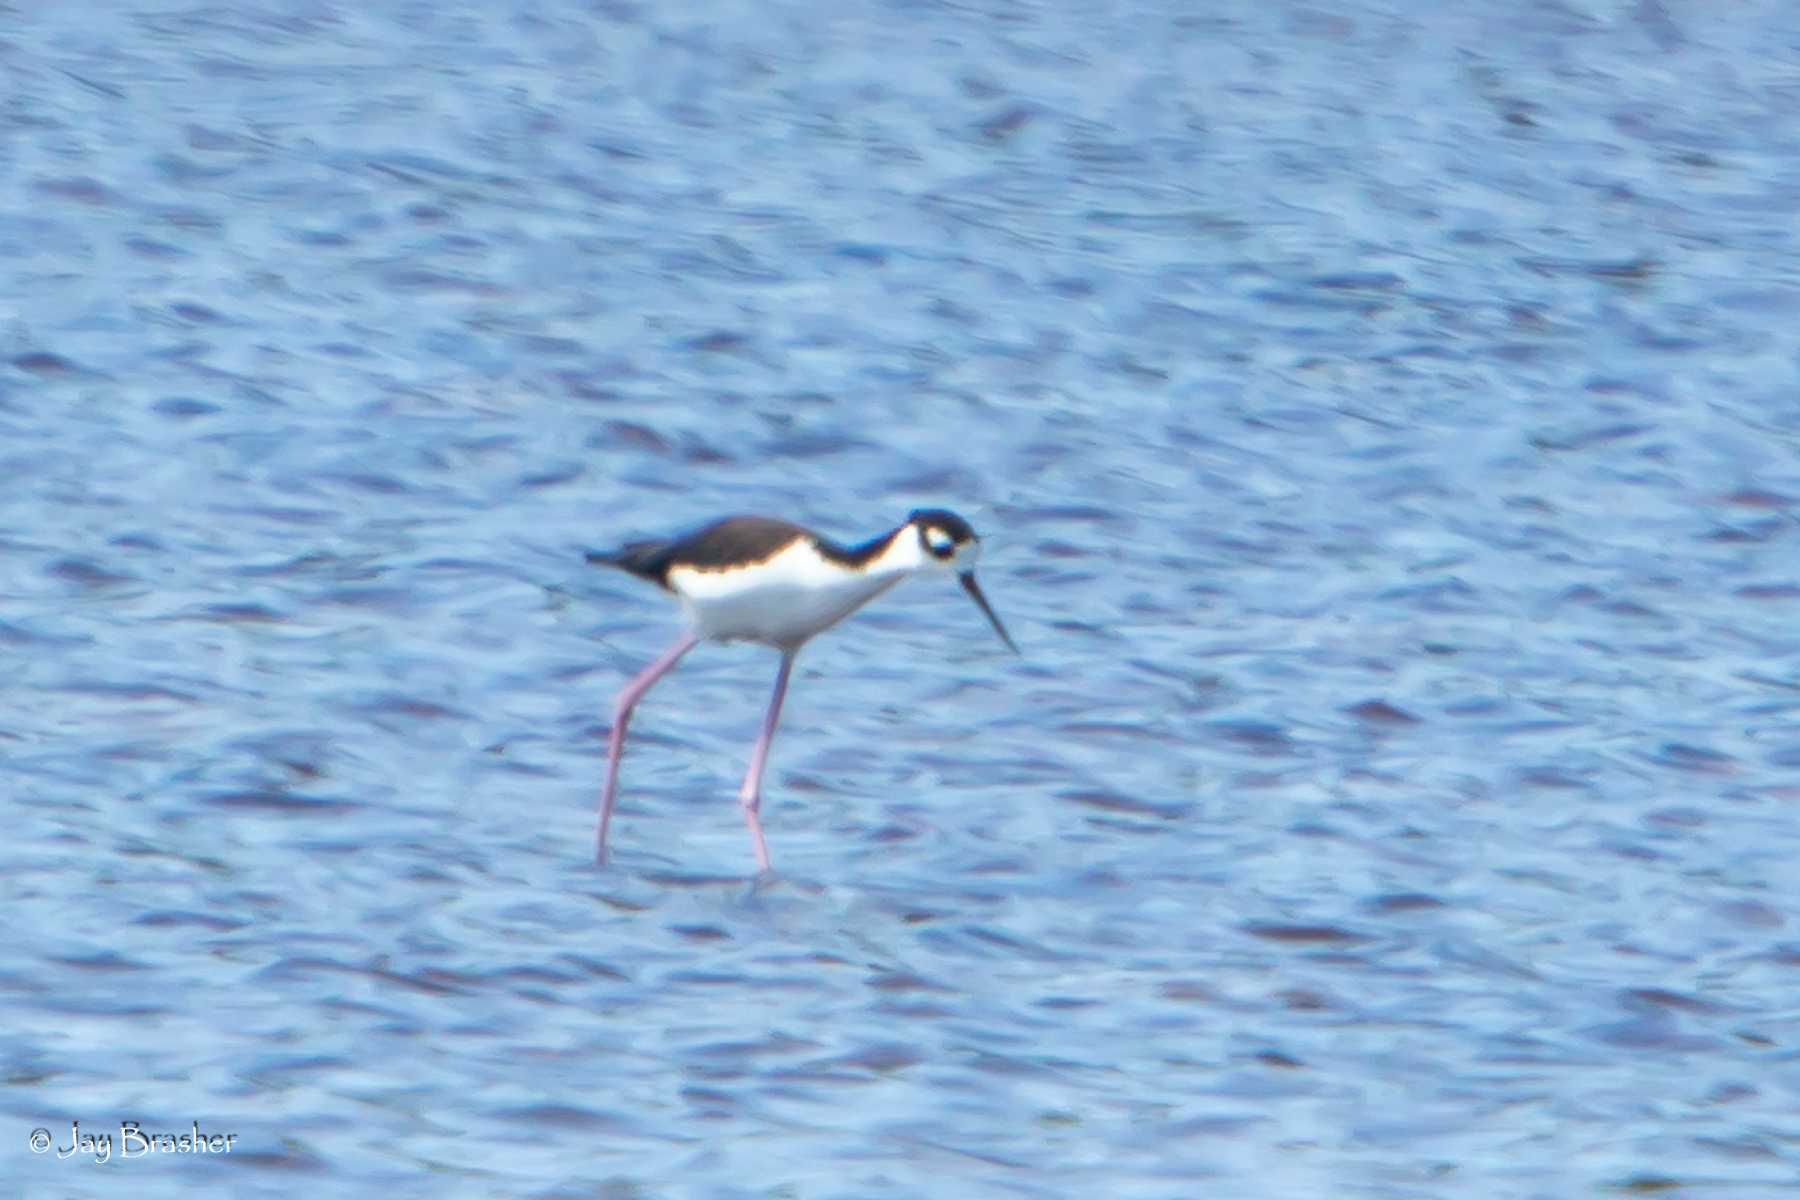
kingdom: Animalia
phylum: Chordata
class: Aves
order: Charadriiformes
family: Recurvirostridae
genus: Himantopus
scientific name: Himantopus mexicanus
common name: Black-necked stilt
